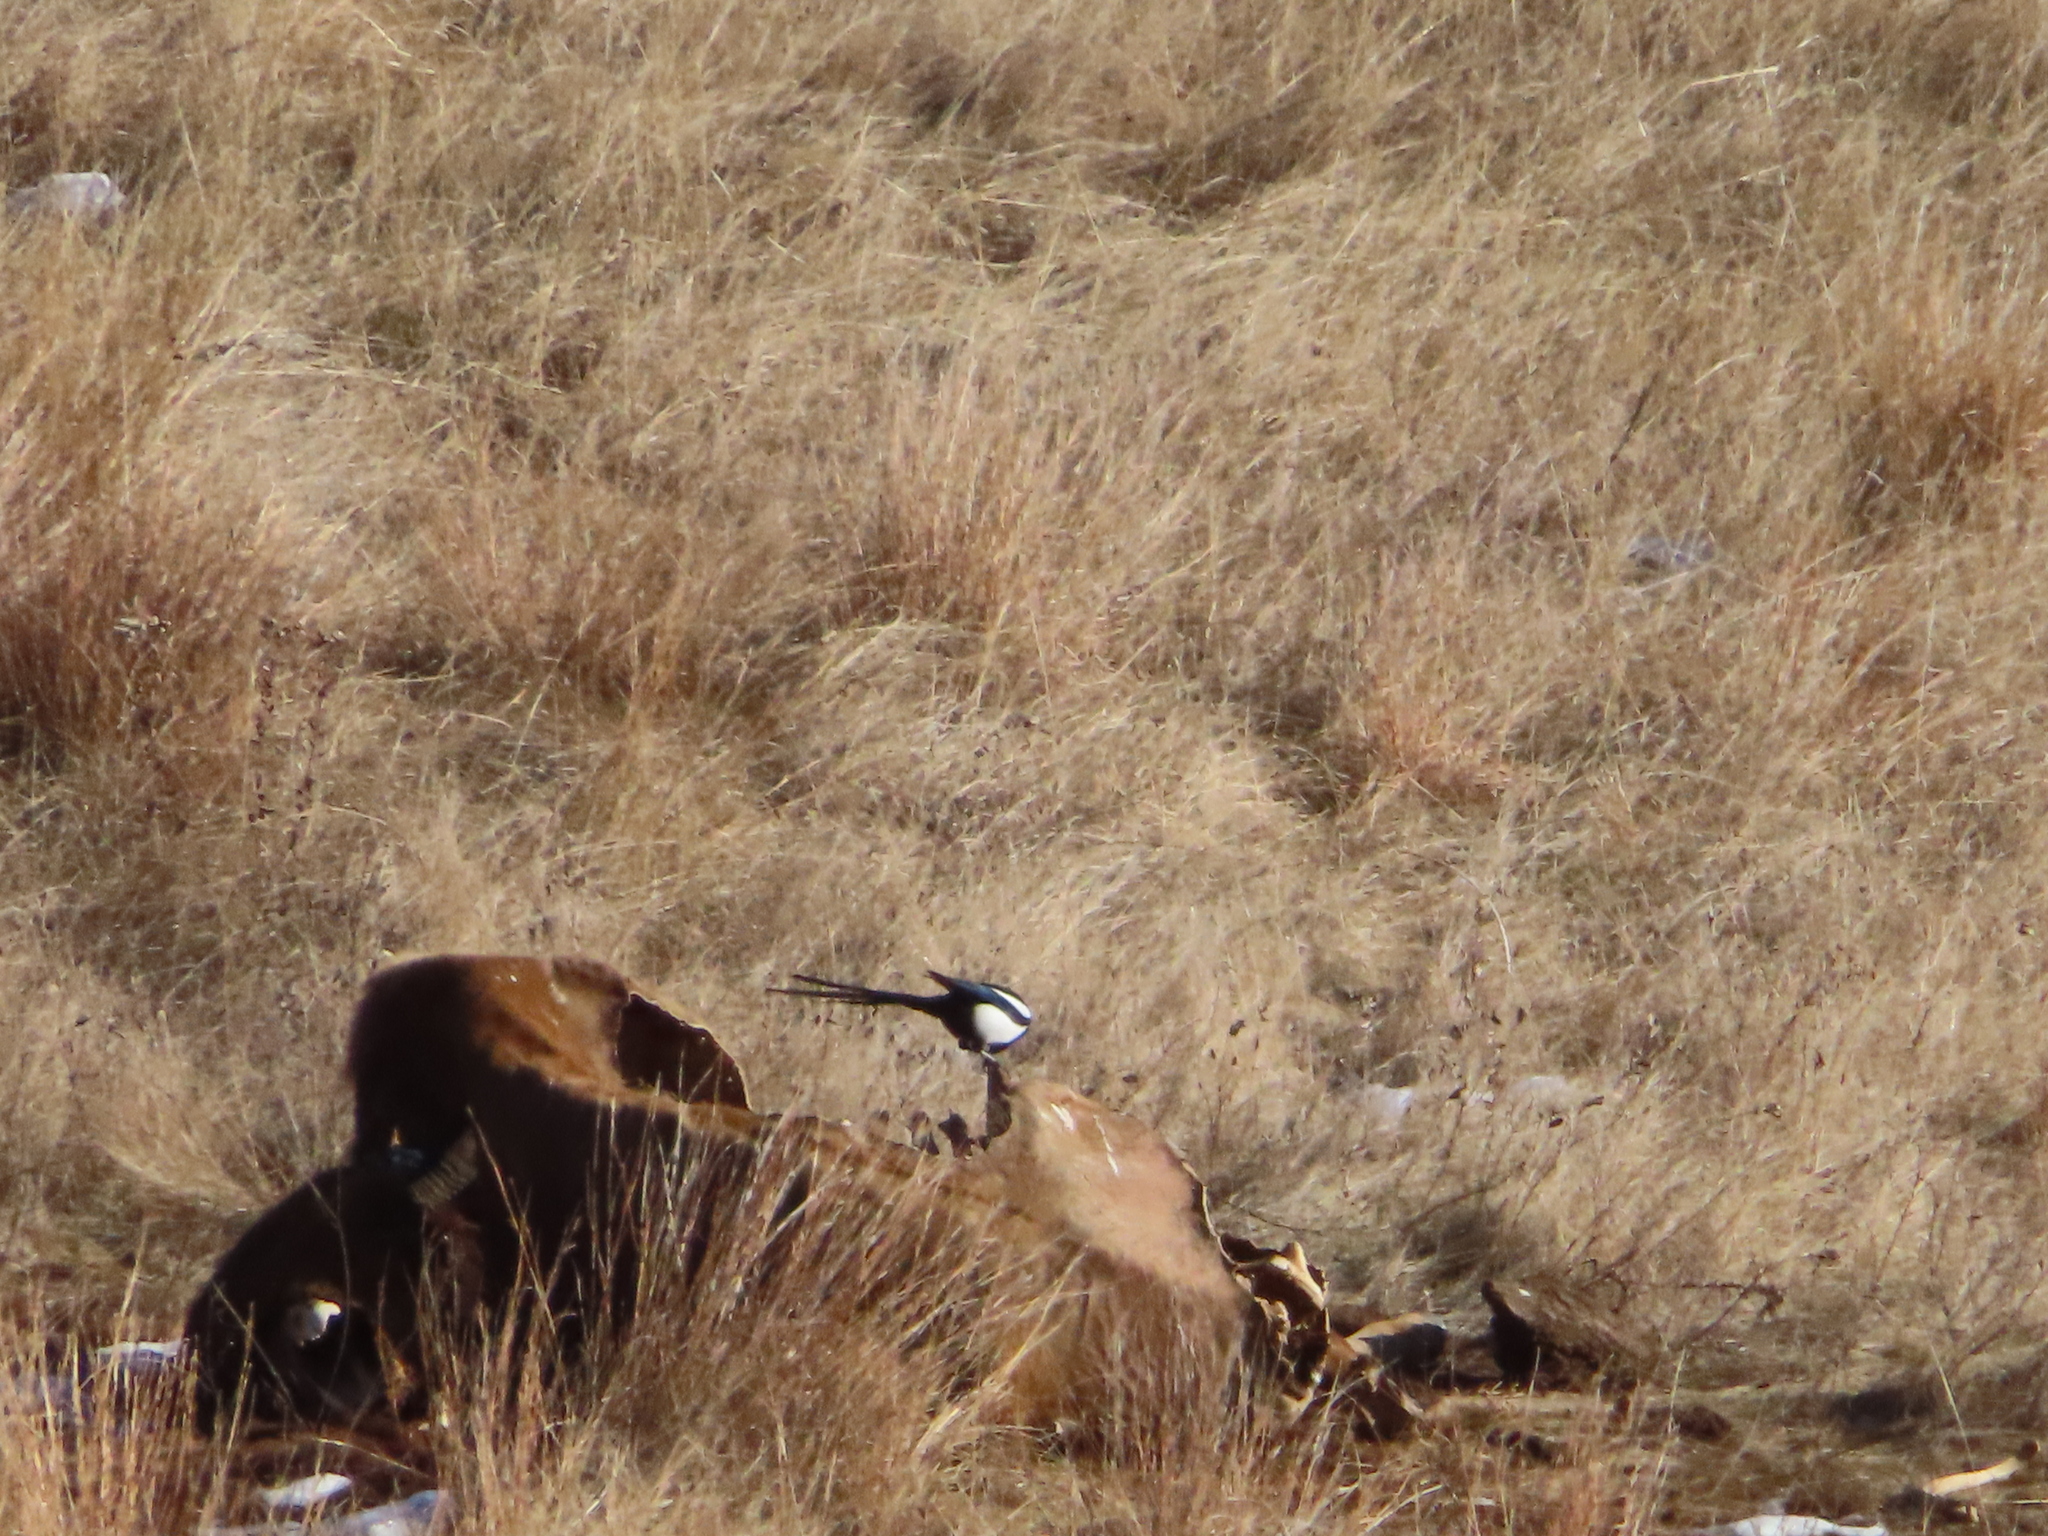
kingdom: Animalia
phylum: Chordata
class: Aves
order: Passeriformes
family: Corvidae
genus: Pica
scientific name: Pica hudsonia
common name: Black-billed magpie
